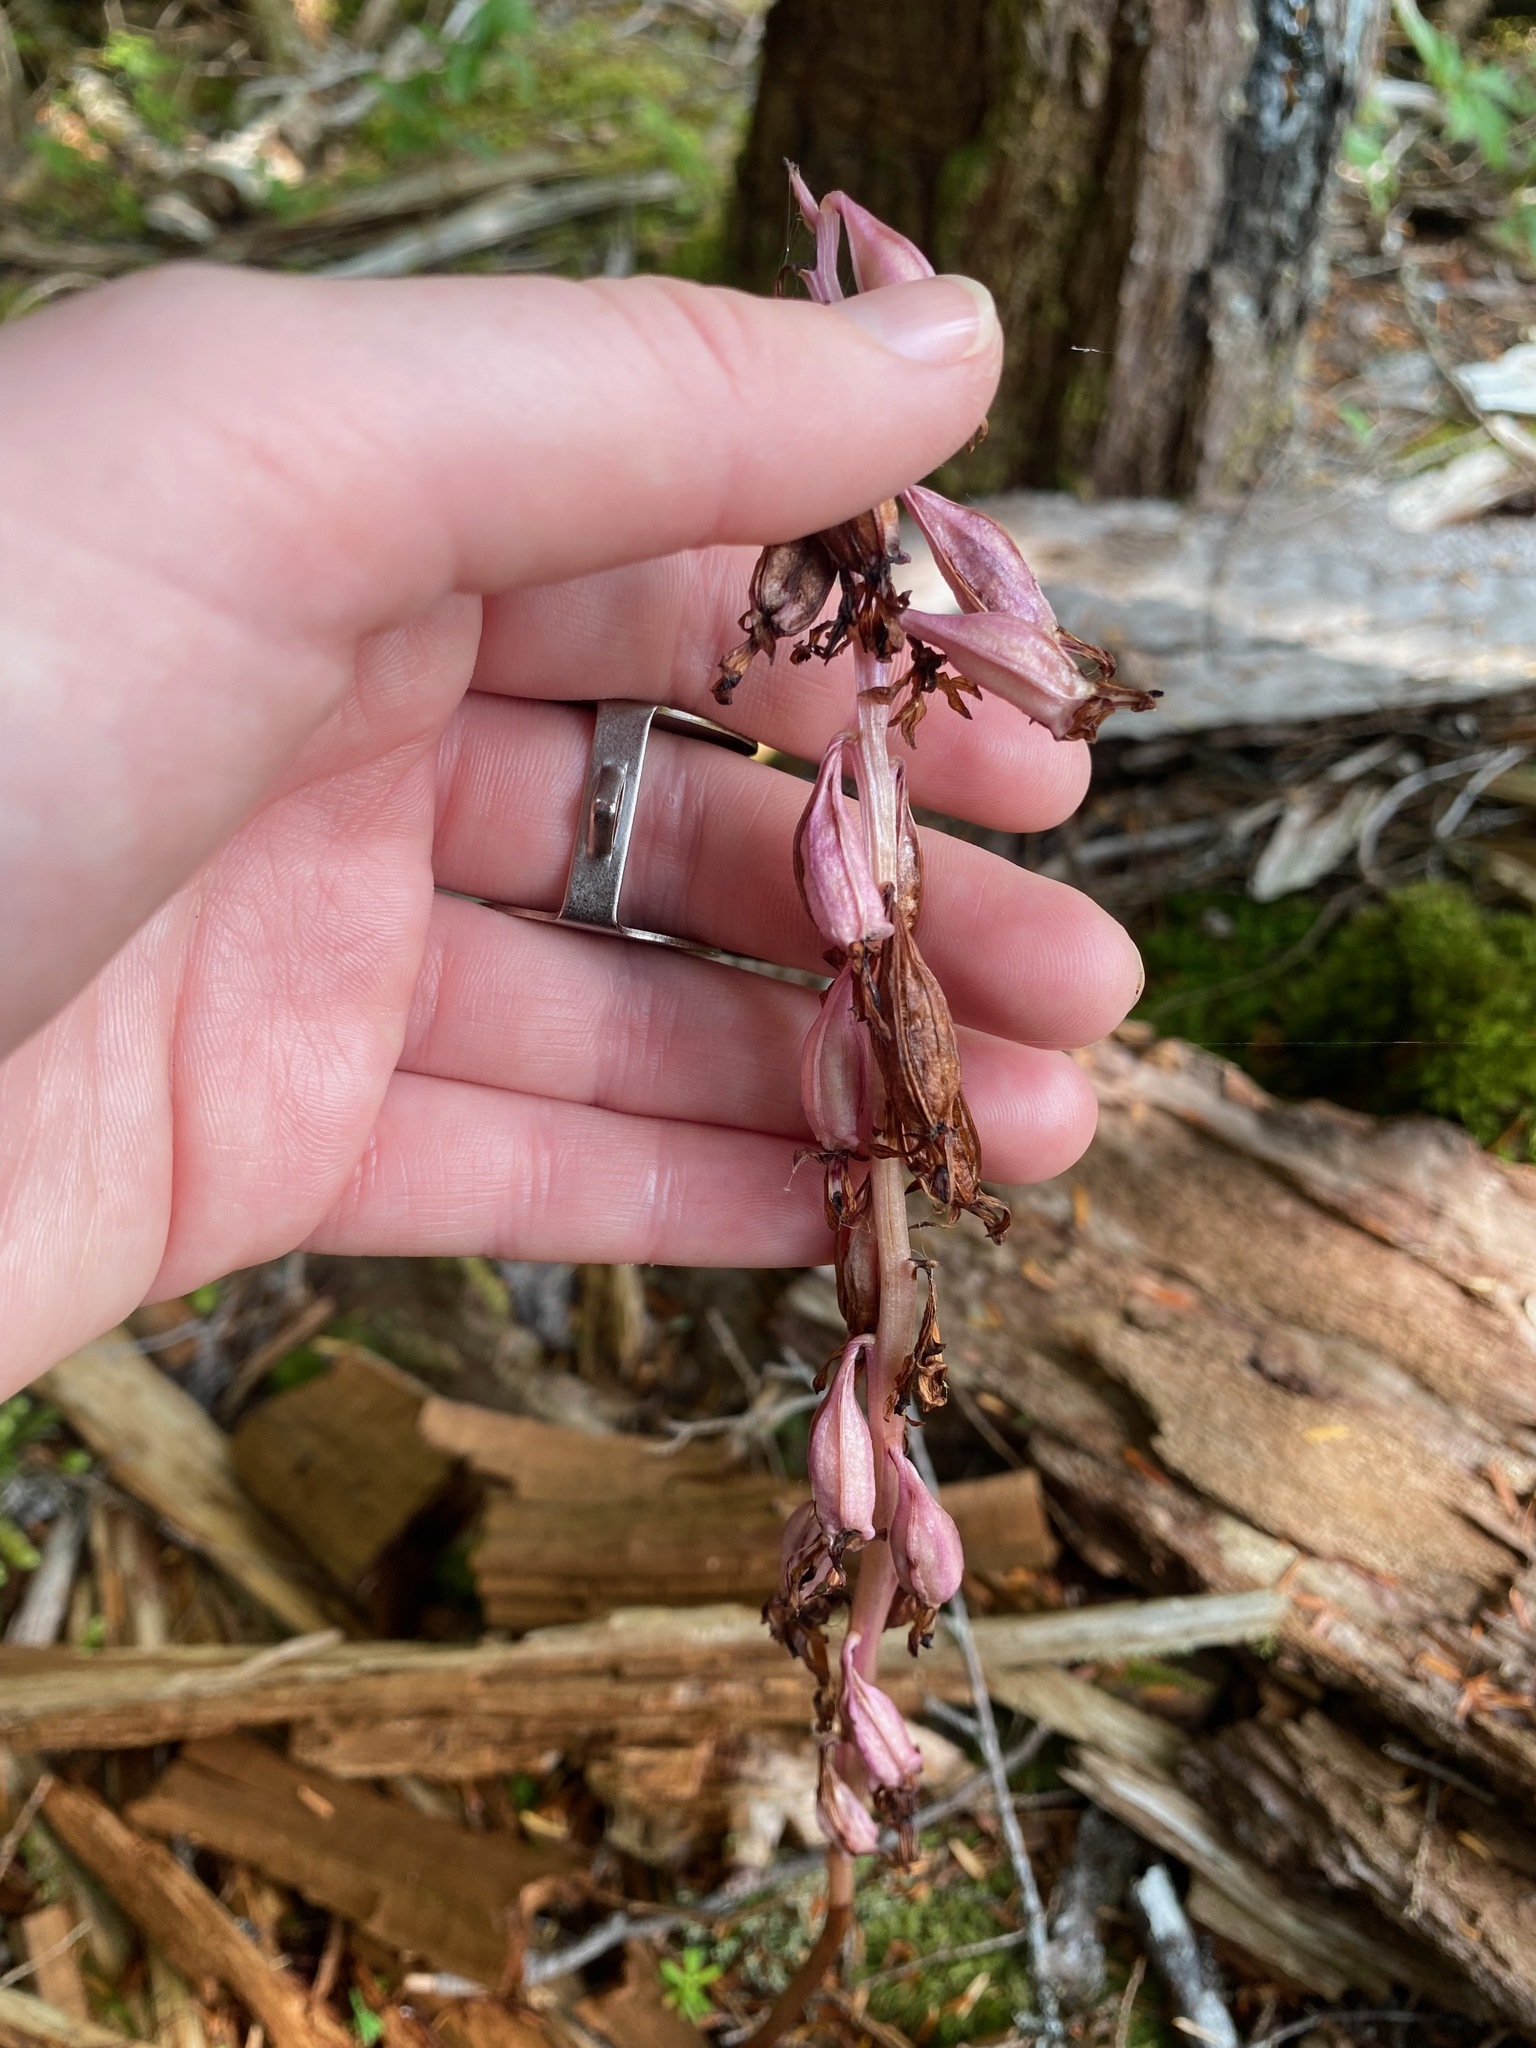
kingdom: Plantae
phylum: Tracheophyta
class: Liliopsida
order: Asparagales
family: Orchidaceae
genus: Corallorhiza
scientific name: Corallorhiza mertensiana
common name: Pacific coralroot
